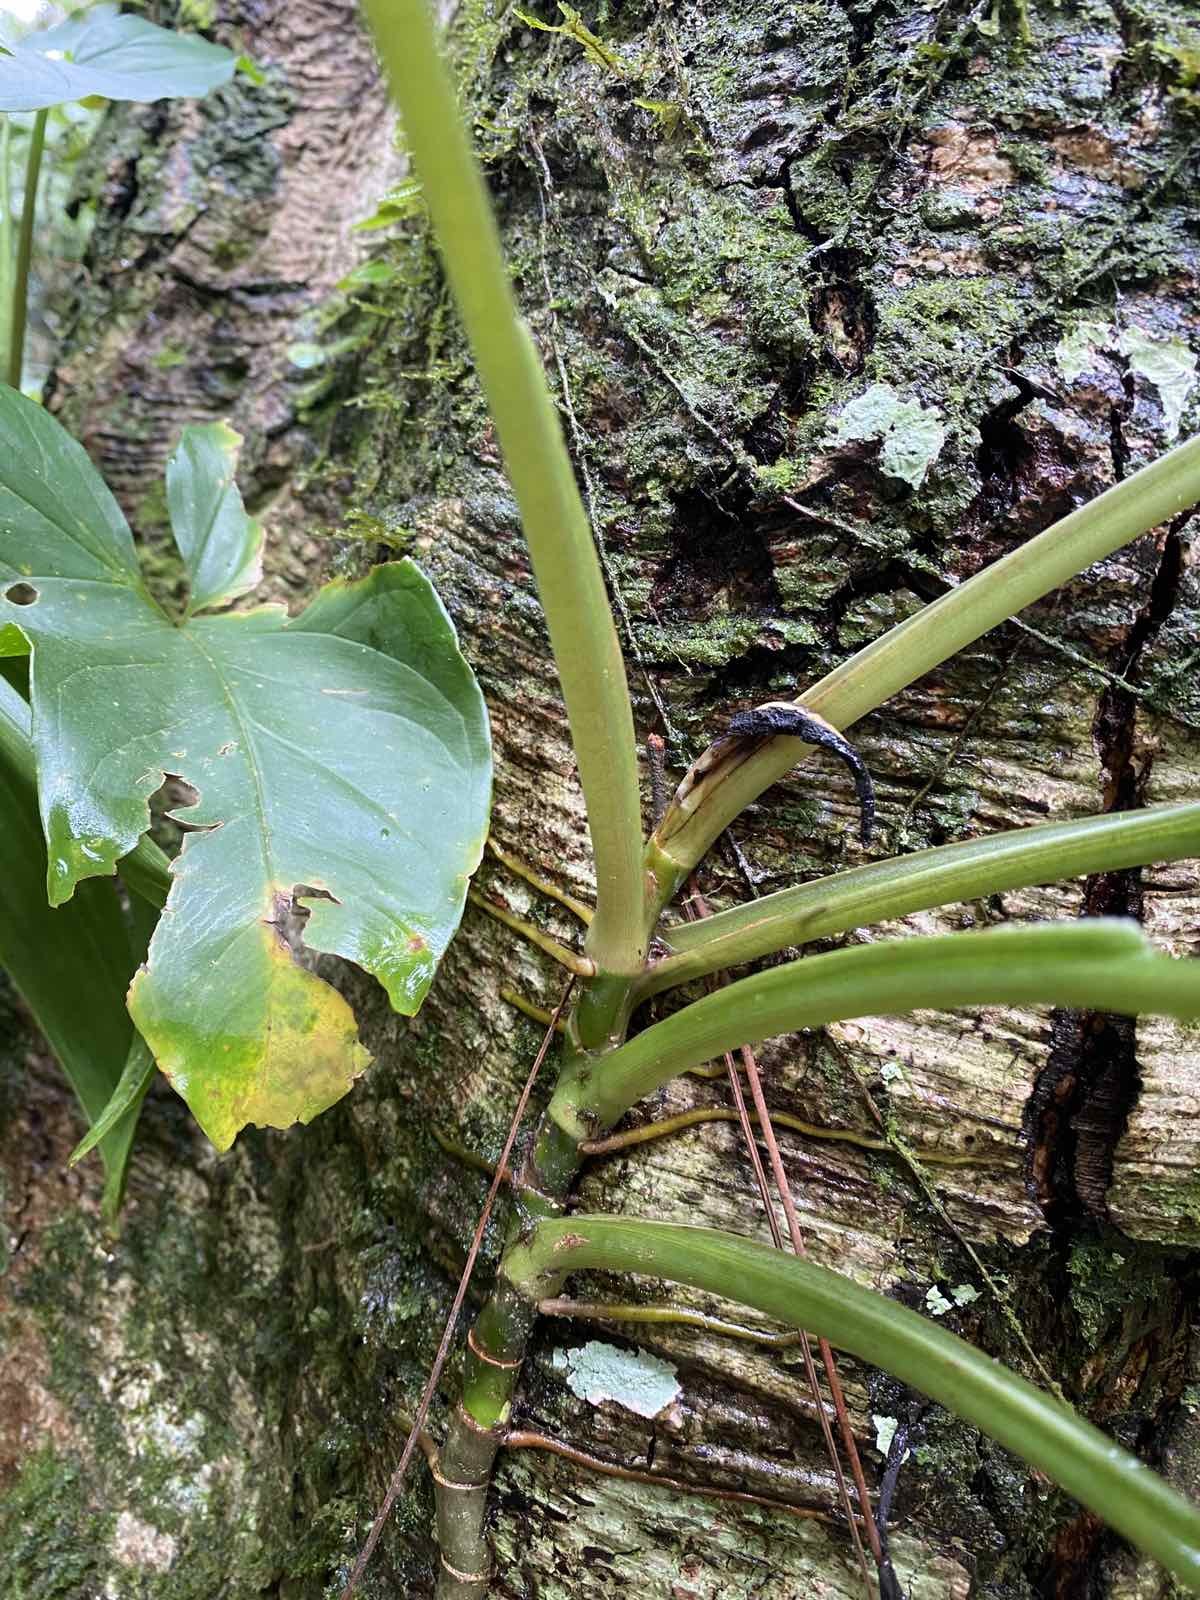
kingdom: Plantae
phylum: Tracheophyta
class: Liliopsida
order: Alismatales
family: Araceae
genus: Syngonium
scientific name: Syngonium podophyllum
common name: American evergreen
